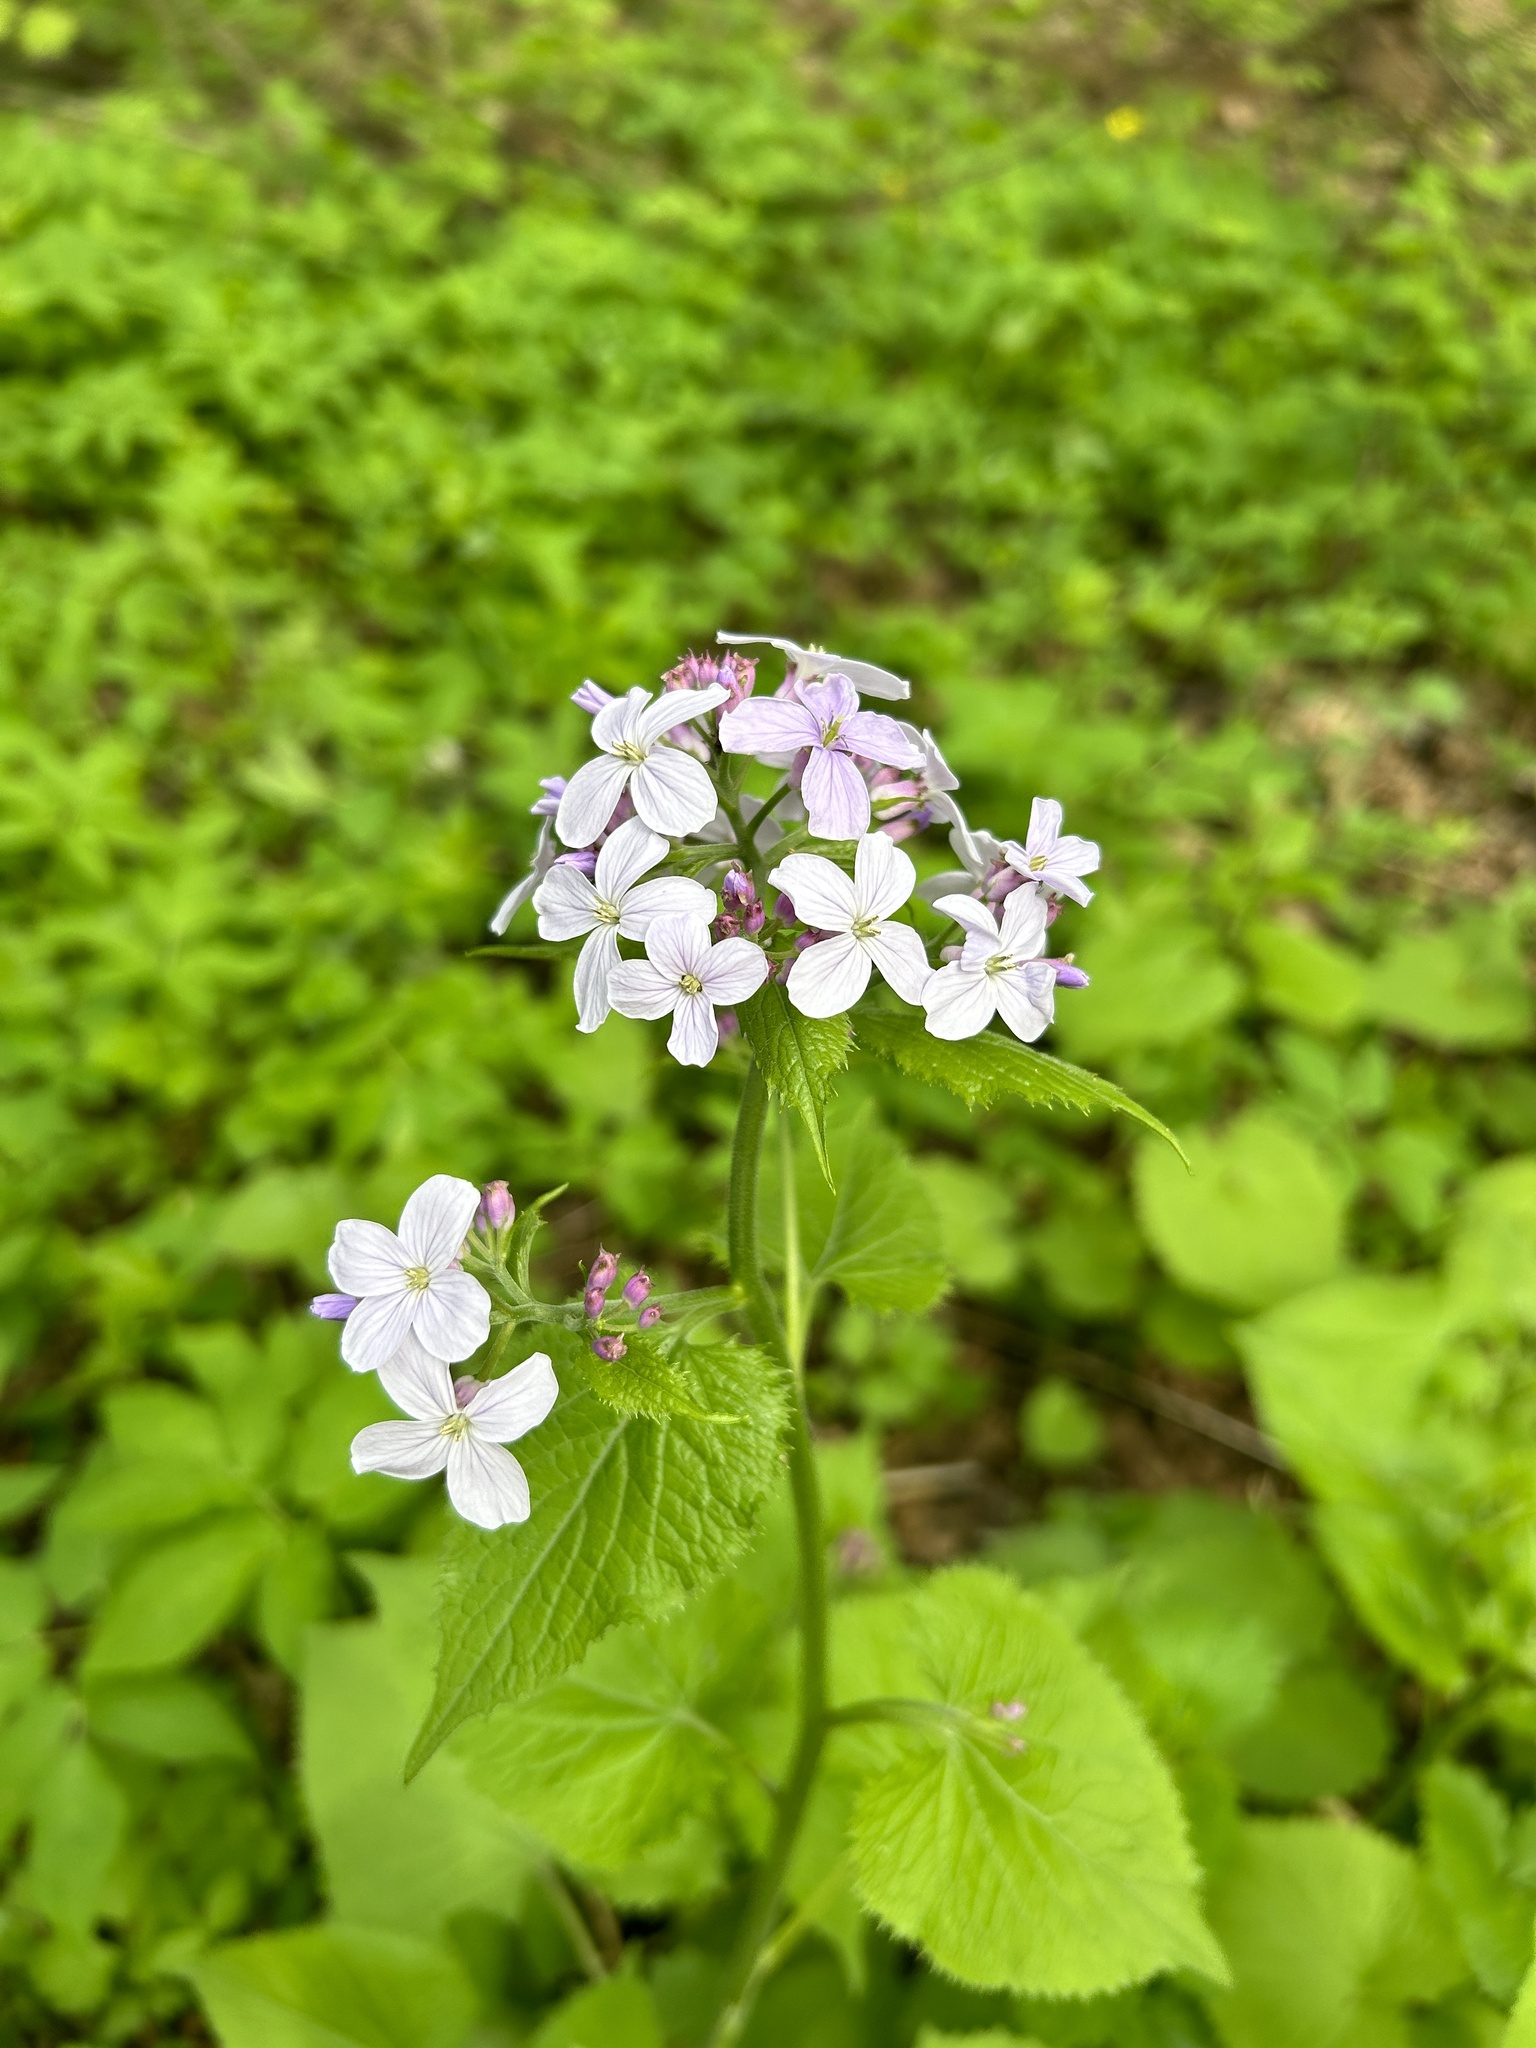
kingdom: Plantae
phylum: Tracheophyta
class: Magnoliopsida
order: Brassicales
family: Brassicaceae
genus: Lunaria
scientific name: Lunaria rediviva
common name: Perennial honesty
